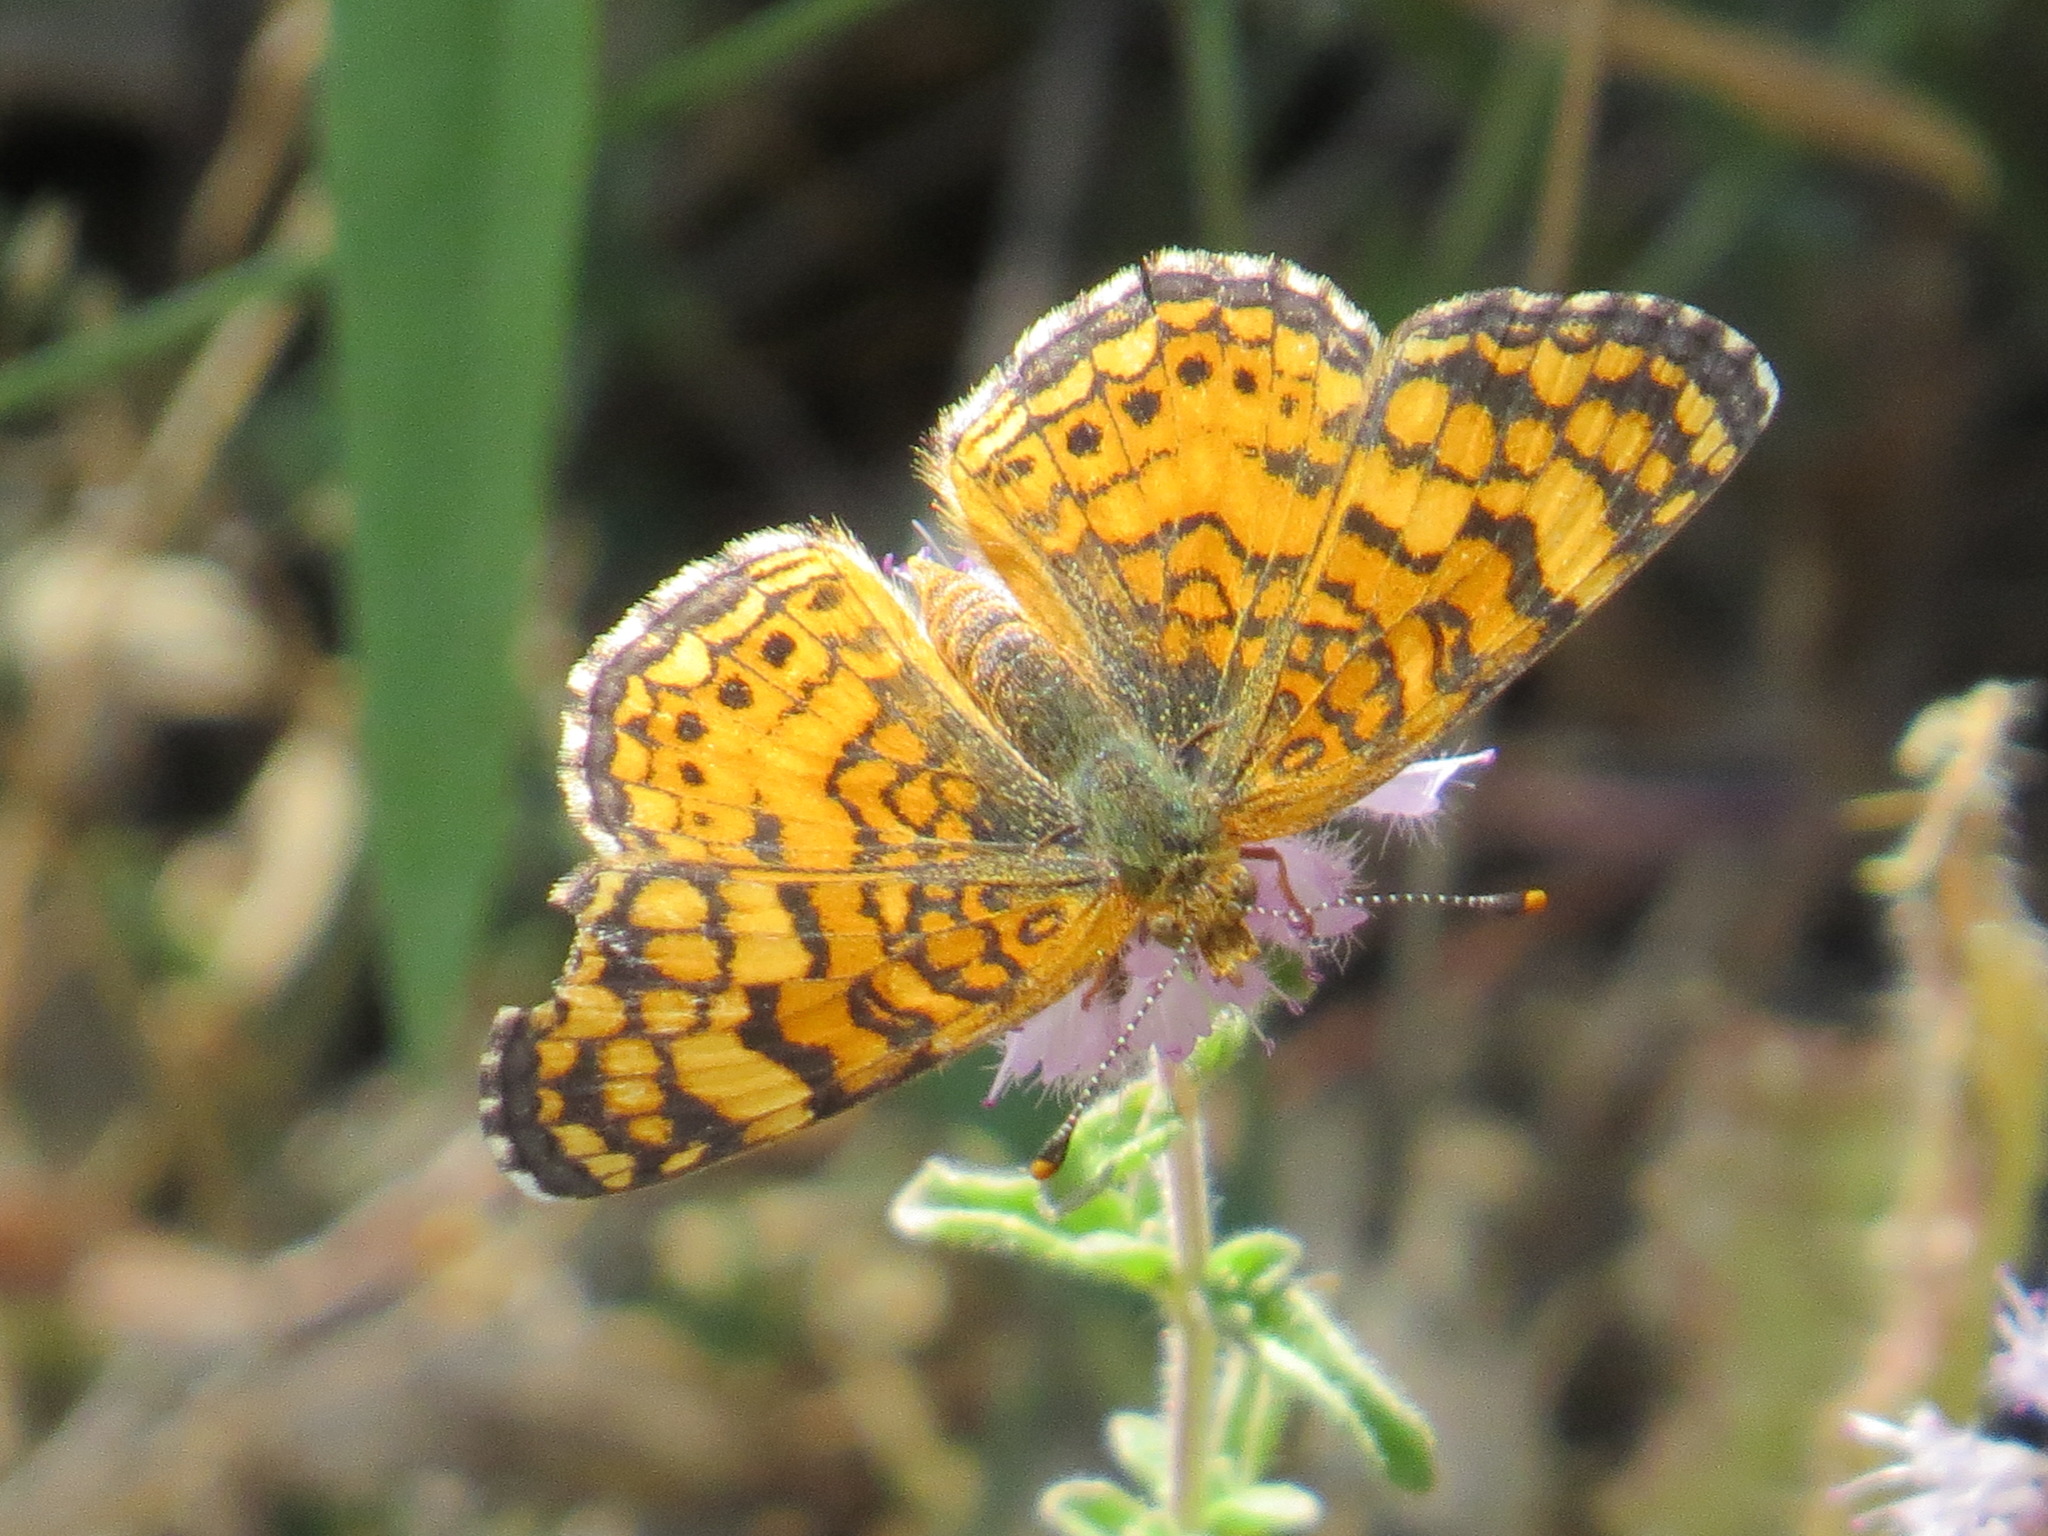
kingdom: Animalia
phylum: Arthropoda
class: Insecta
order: Lepidoptera
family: Nymphalidae
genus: Eresia
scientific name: Eresia aveyrona
